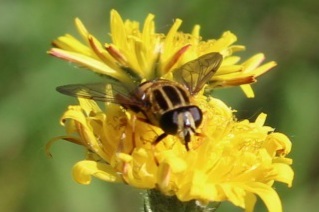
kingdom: Animalia
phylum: Arthropoda
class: Insecta
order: Diptera
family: Syrphidae
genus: Helophilus
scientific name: Helophilus pendulus
